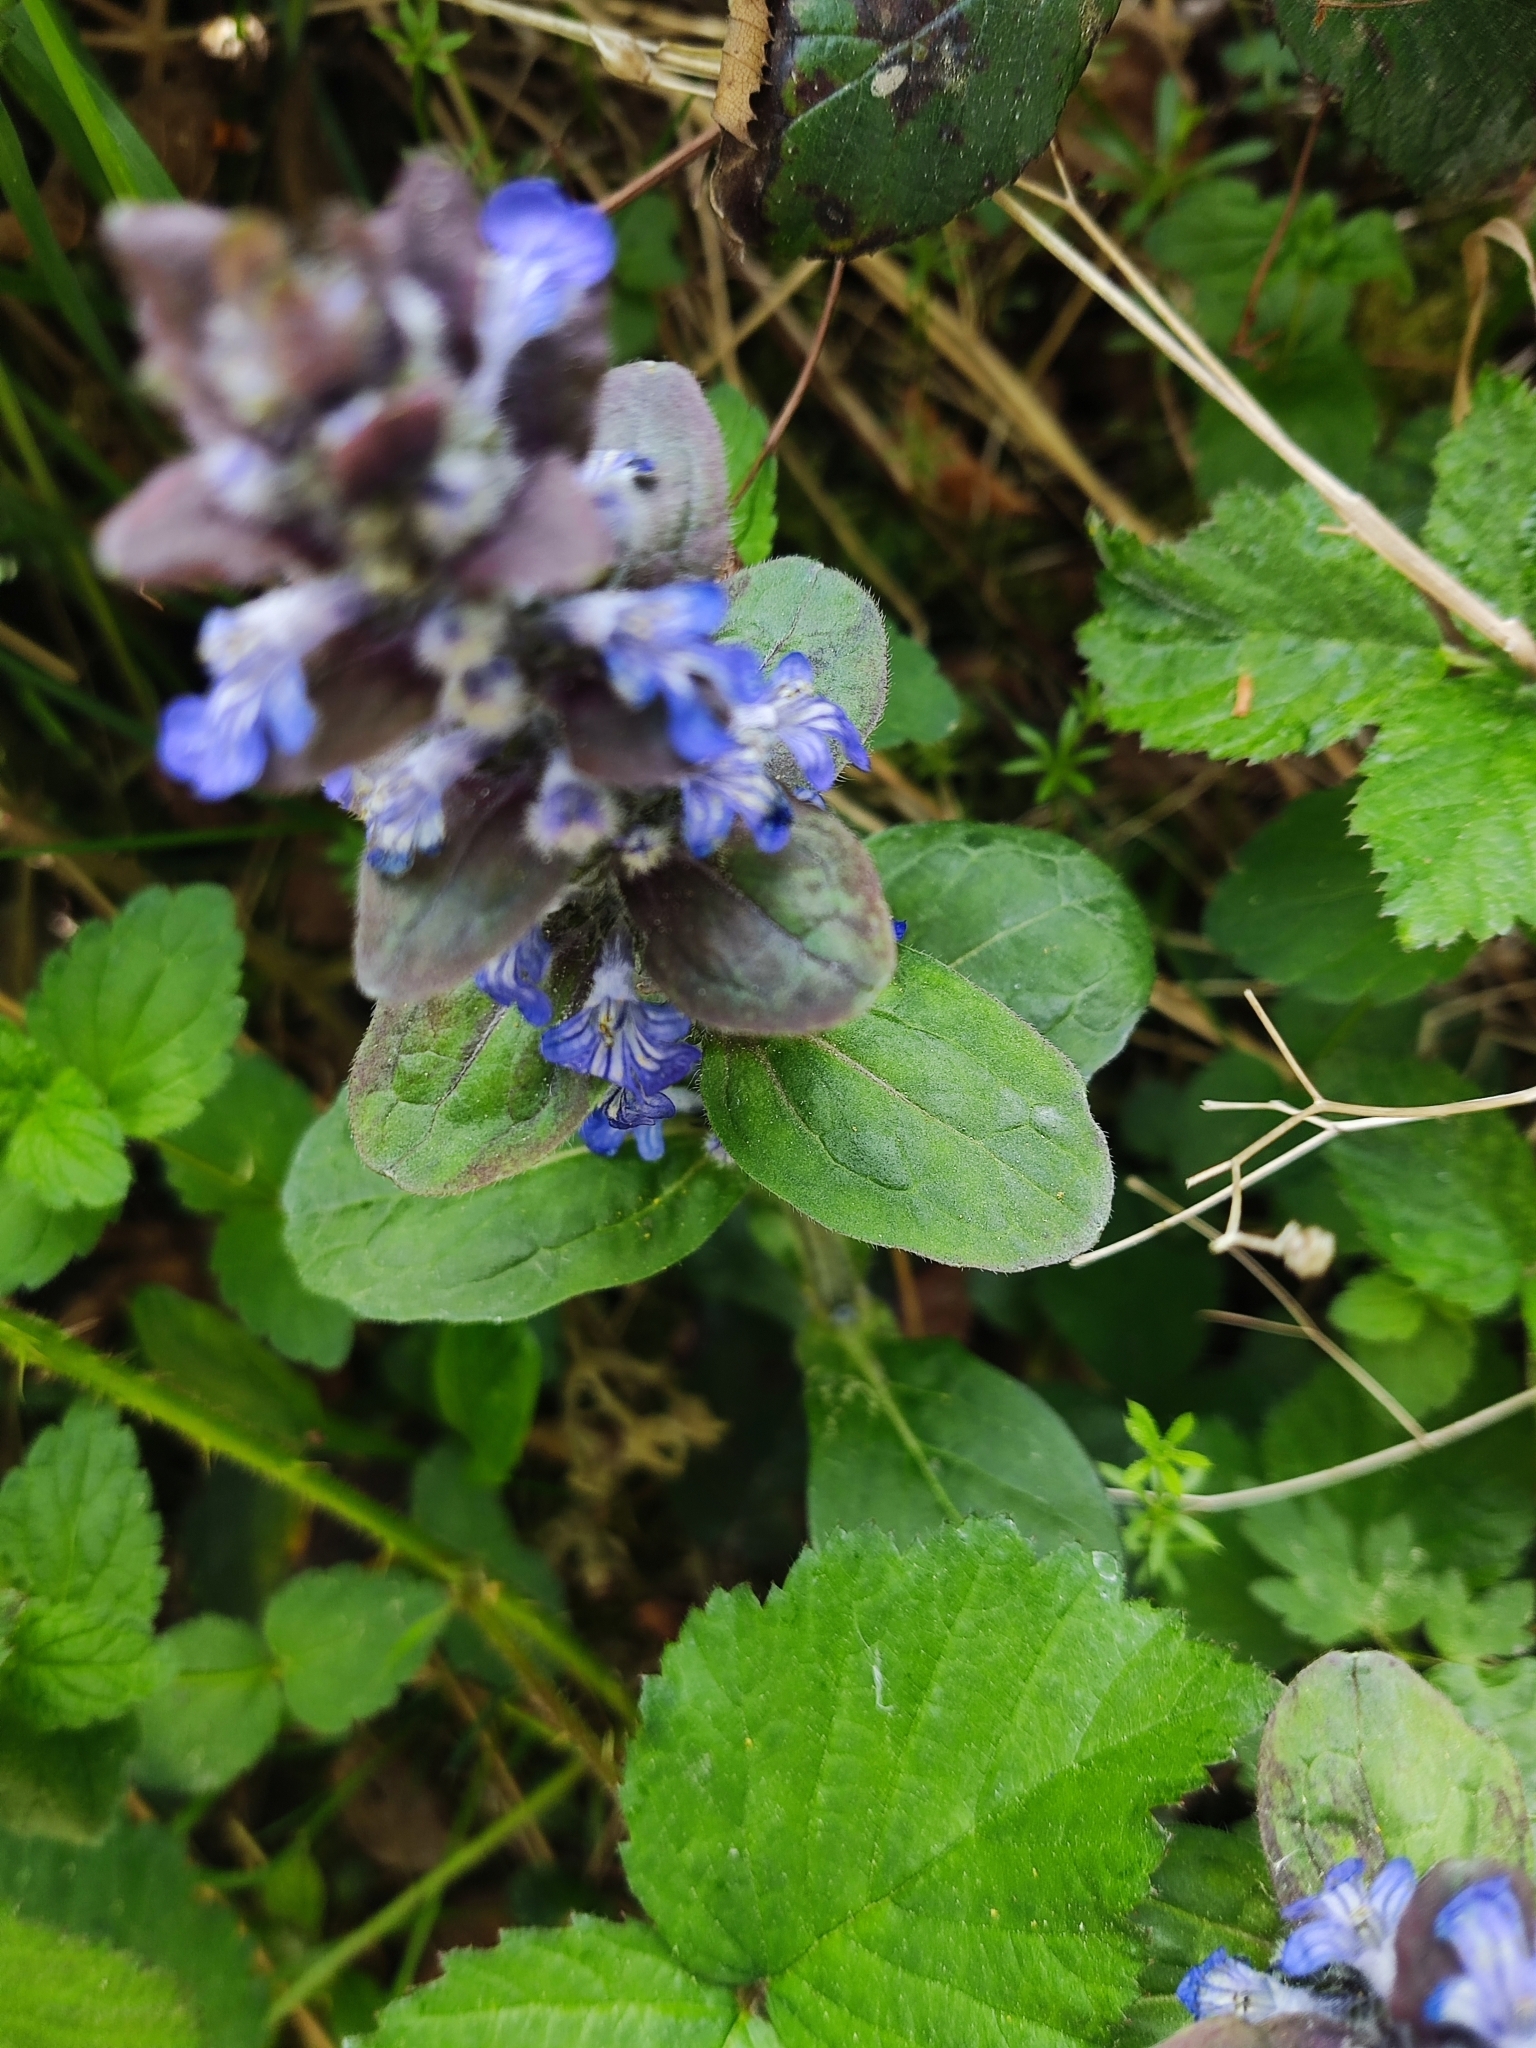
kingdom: Plantae
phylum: Tracheophyta
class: Magnoliopsida
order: Lamiales
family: Lamiaceae
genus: Ajuga
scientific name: Ajuga reptans
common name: Bugle
